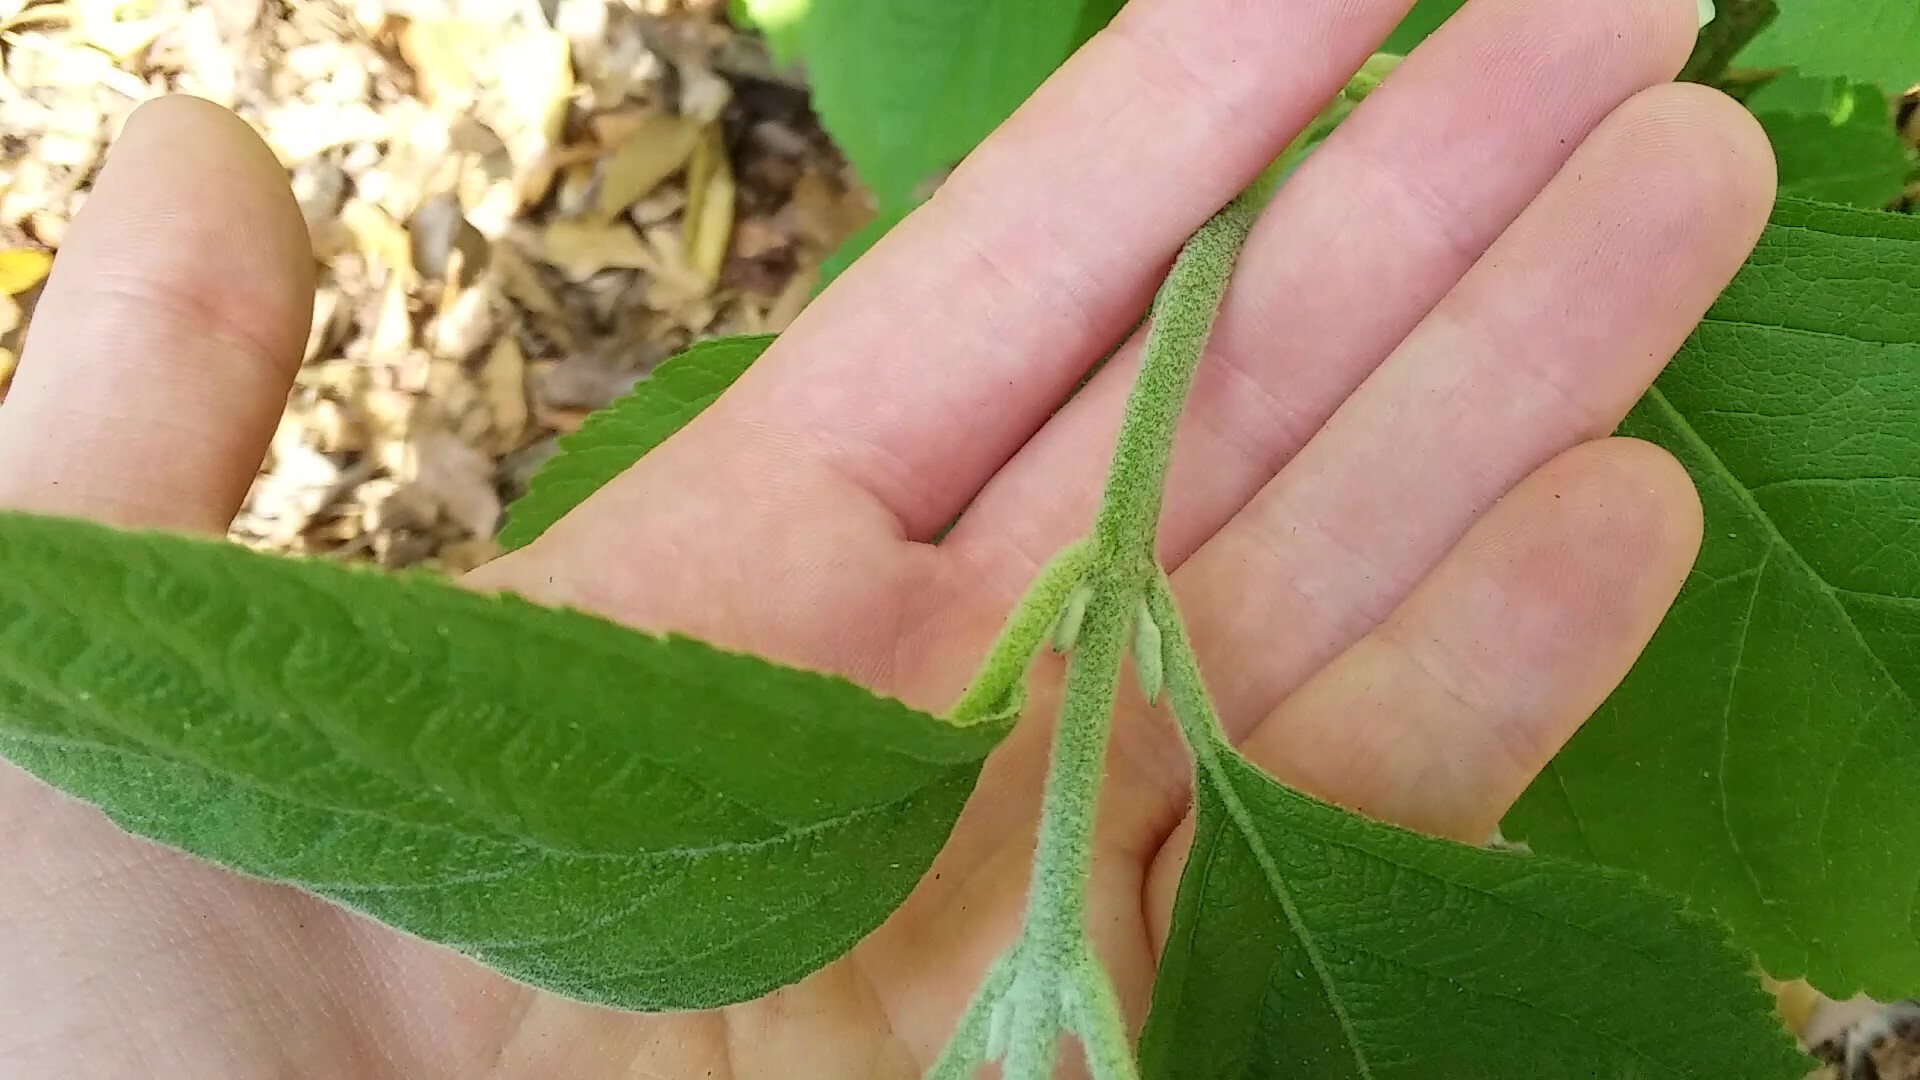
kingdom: Plantae
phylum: Tracheophyta
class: Magnoliopsida
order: Lamiales
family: Lamiaceae
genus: Callicarpa
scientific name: Callicarpa americana
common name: American beautyberry
